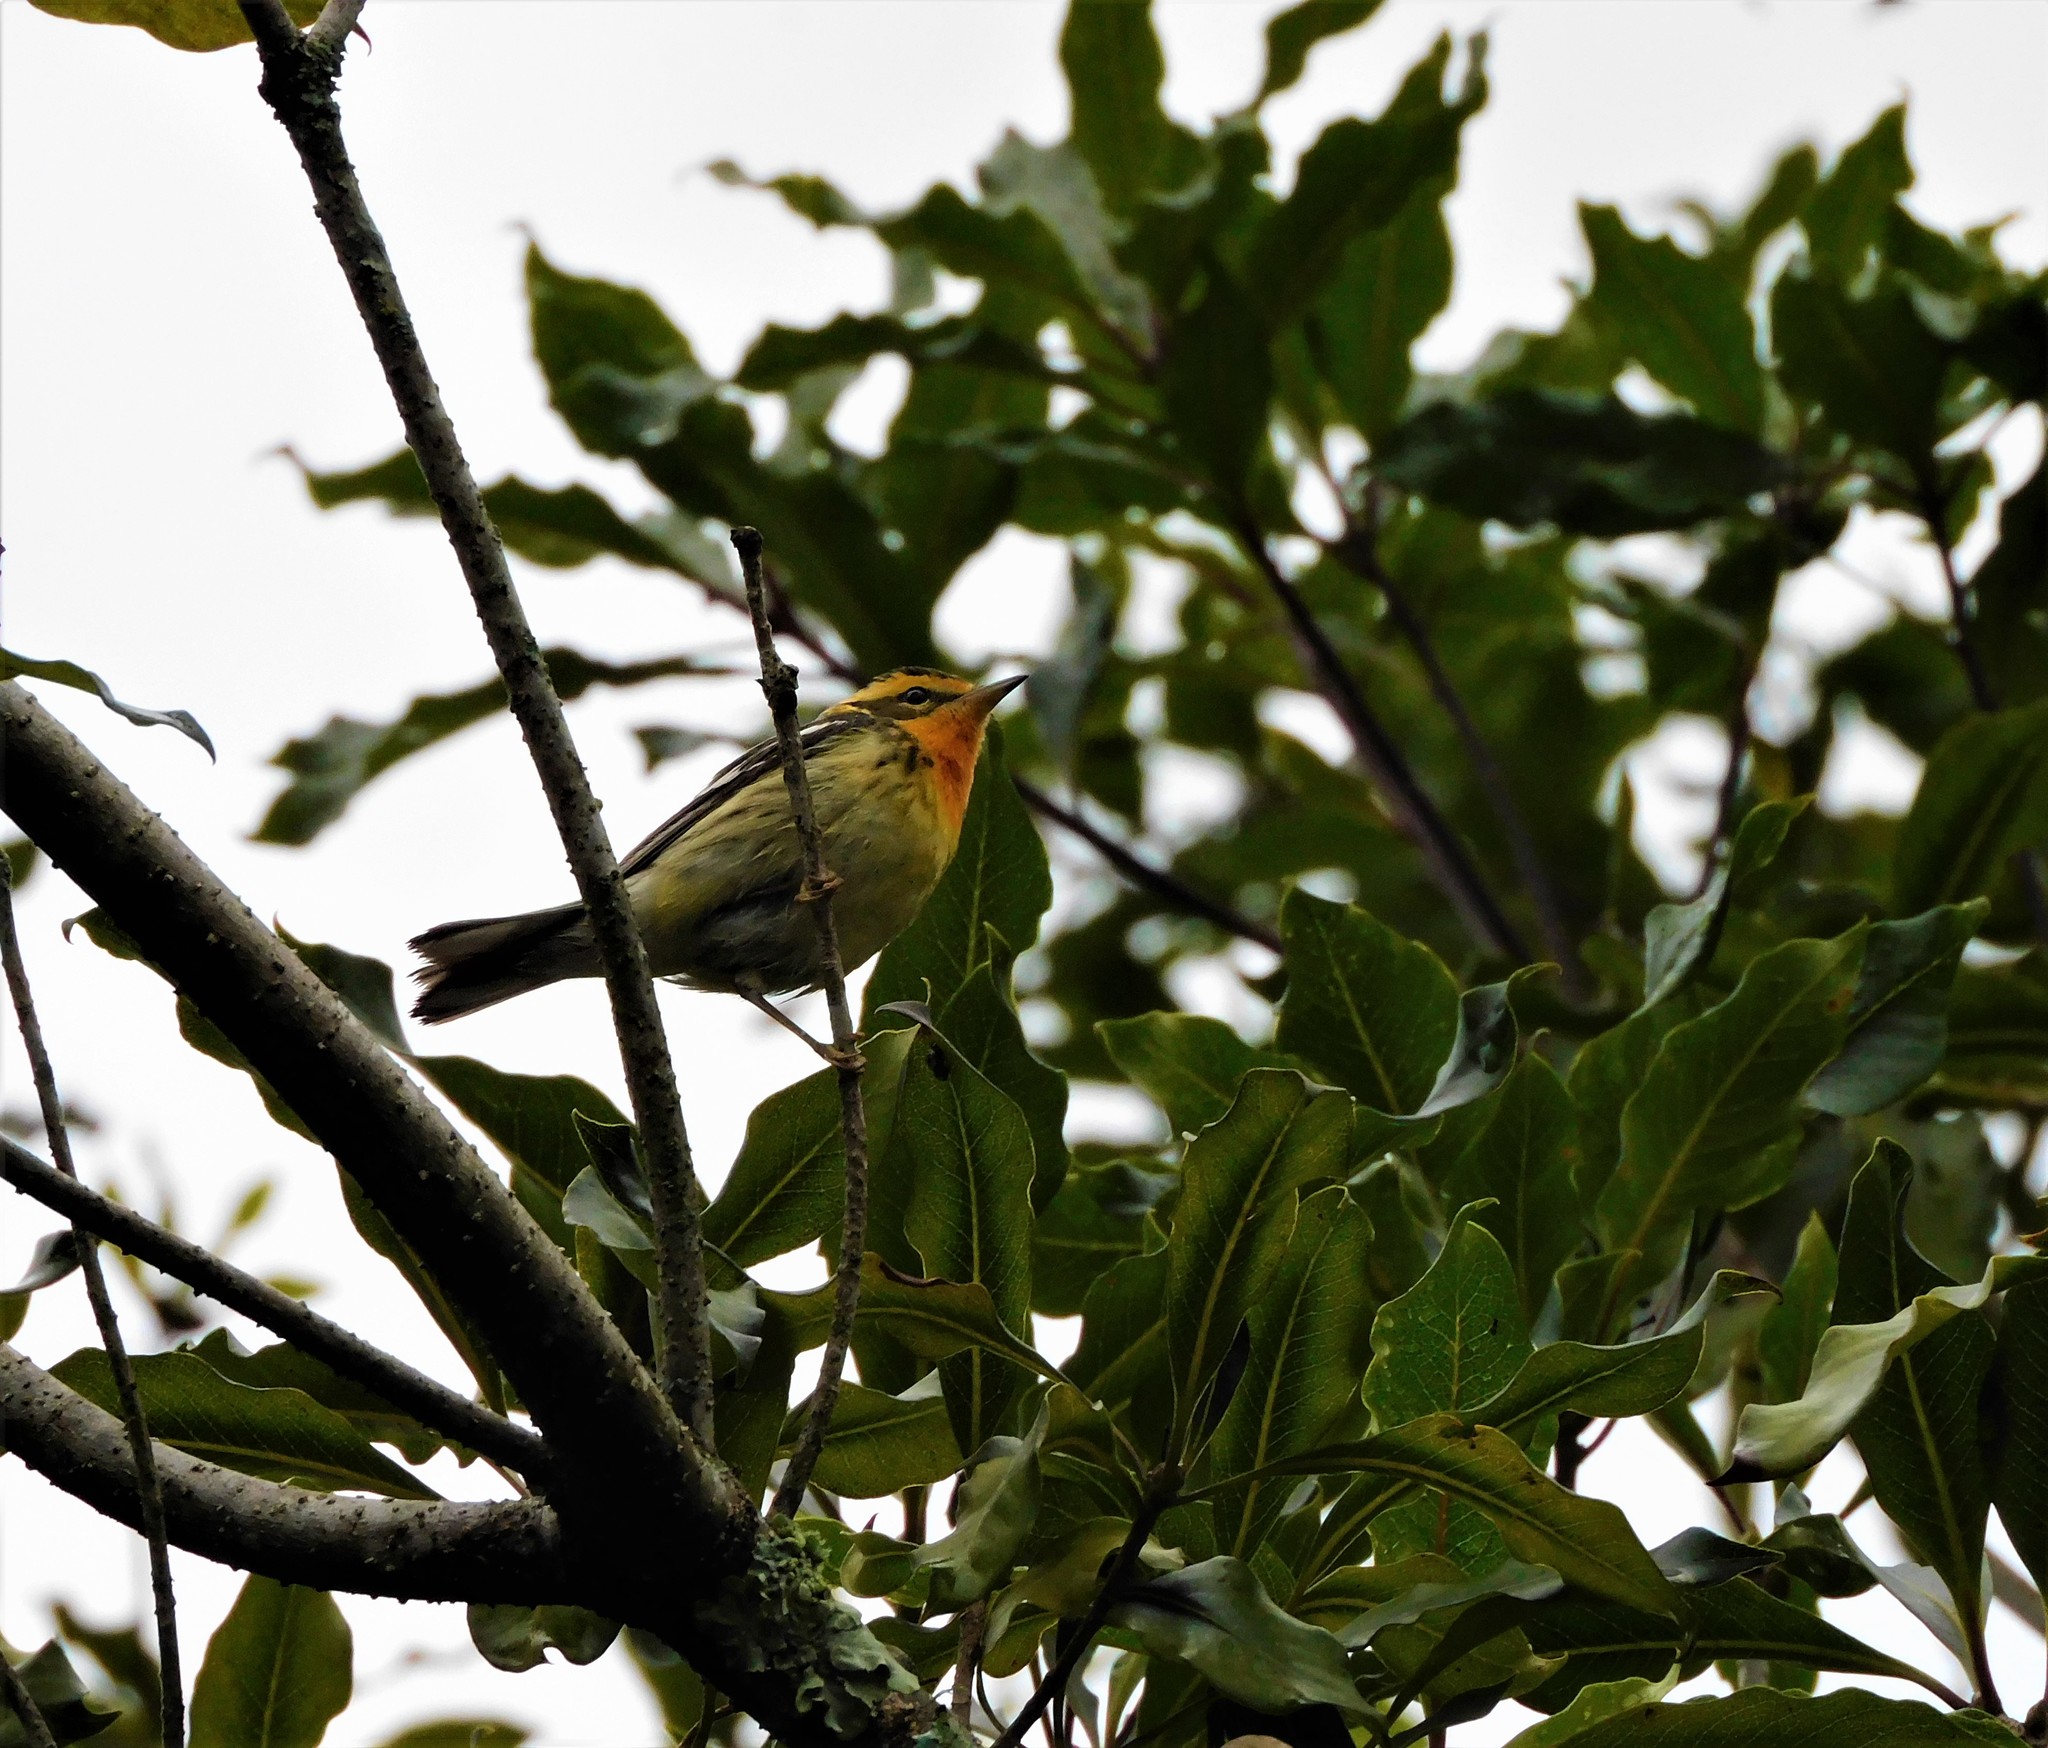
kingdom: Animalia
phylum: Chordata
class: Aves
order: Passeriformes
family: Parulidae
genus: Setophaga
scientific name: Setophaga fusca
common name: Blackburnian warbler
